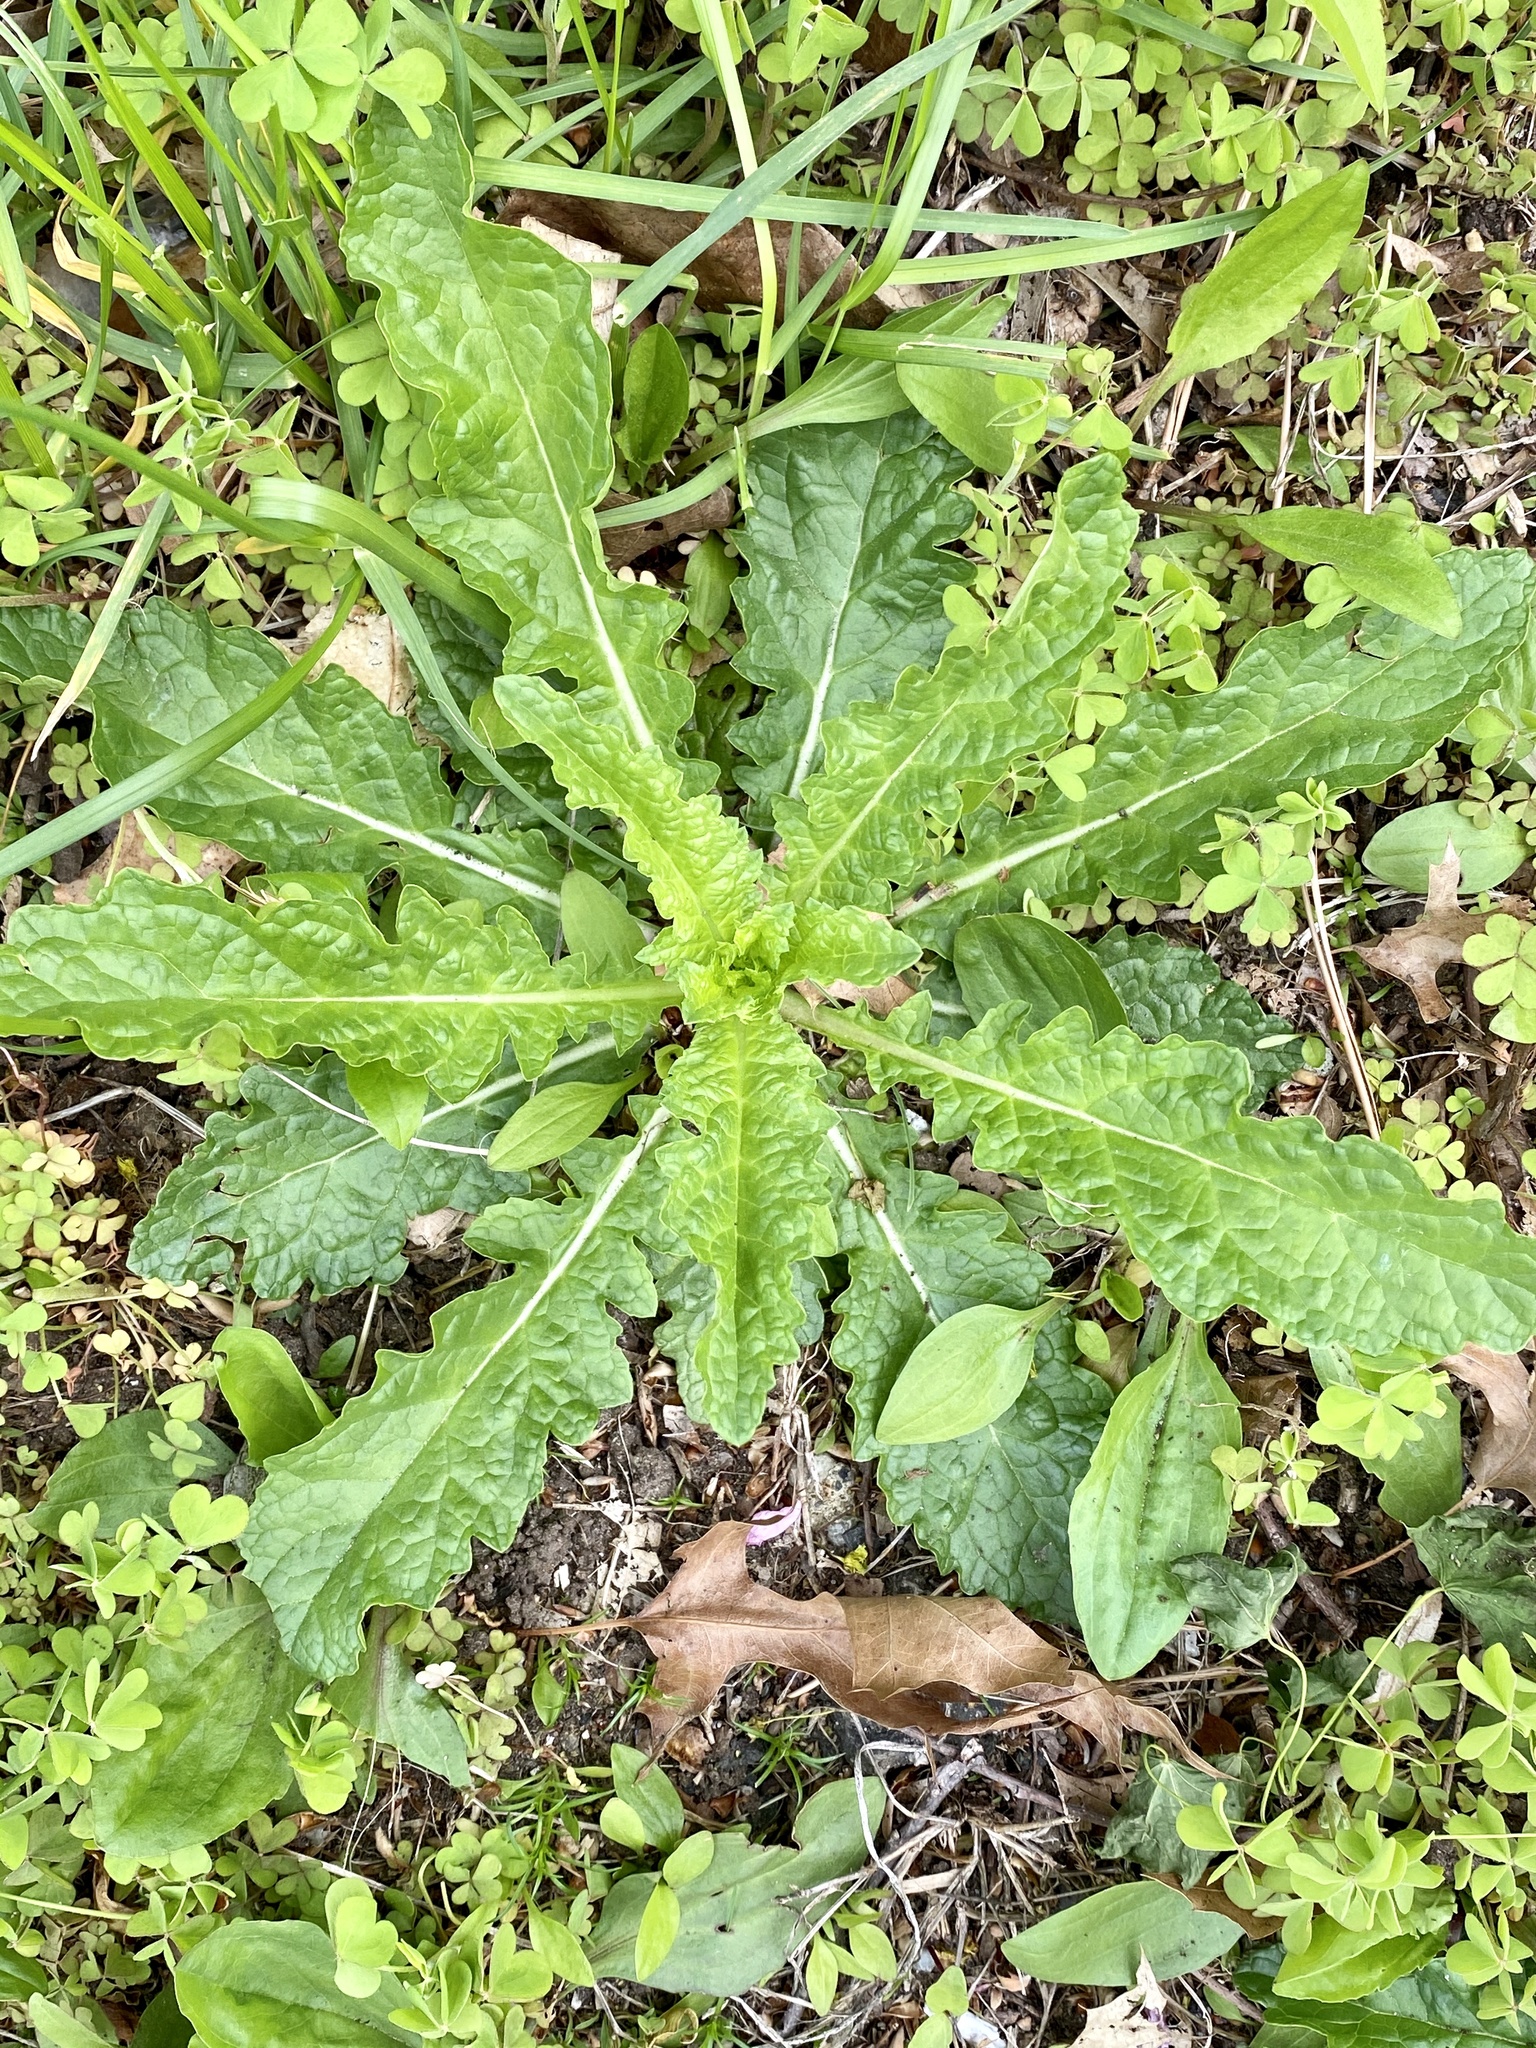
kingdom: Plantae
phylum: Tracheophyta
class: Magnoliopsida
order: Lamiales
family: Scrophulariaceae
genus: Verbascum
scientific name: Verbascum blattaria
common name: Moth mullein
